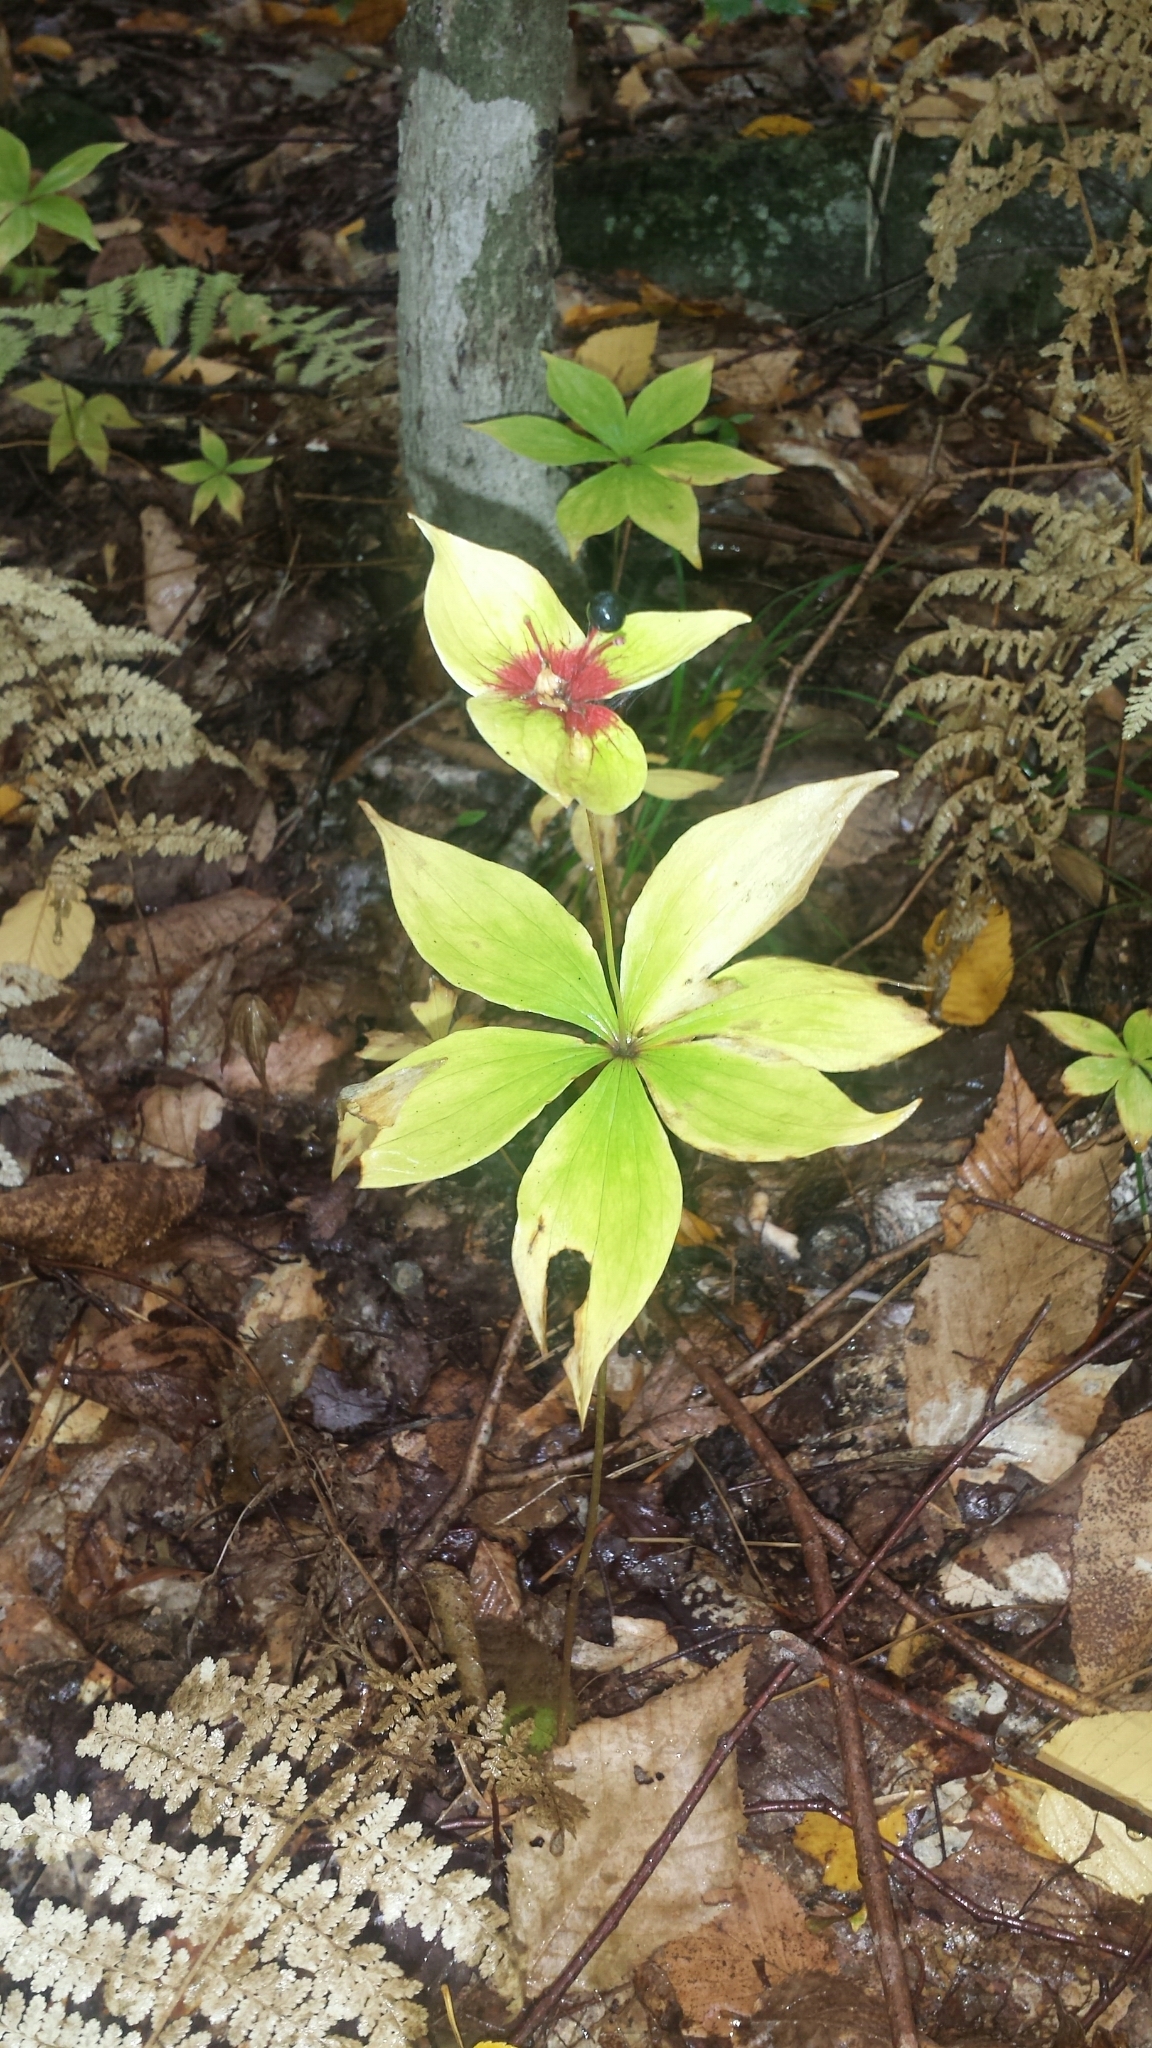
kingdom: Plantae
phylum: Tracheophyta
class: Liliopsida
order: Liliales
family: Liliaceae
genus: Medeola
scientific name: Medeola virginiana
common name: Indian cucumber-root
